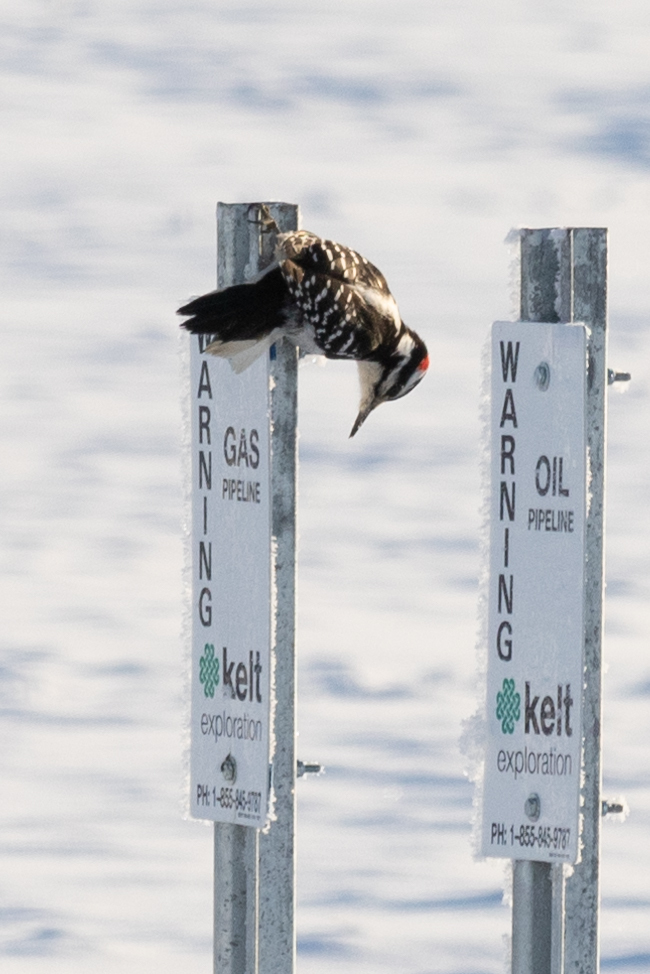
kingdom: Animalia
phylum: Chordata
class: Aves
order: Piciformes
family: Picidae
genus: Leuconotopicus
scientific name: Leuconotopicus villosus
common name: Hairy woodpecker
